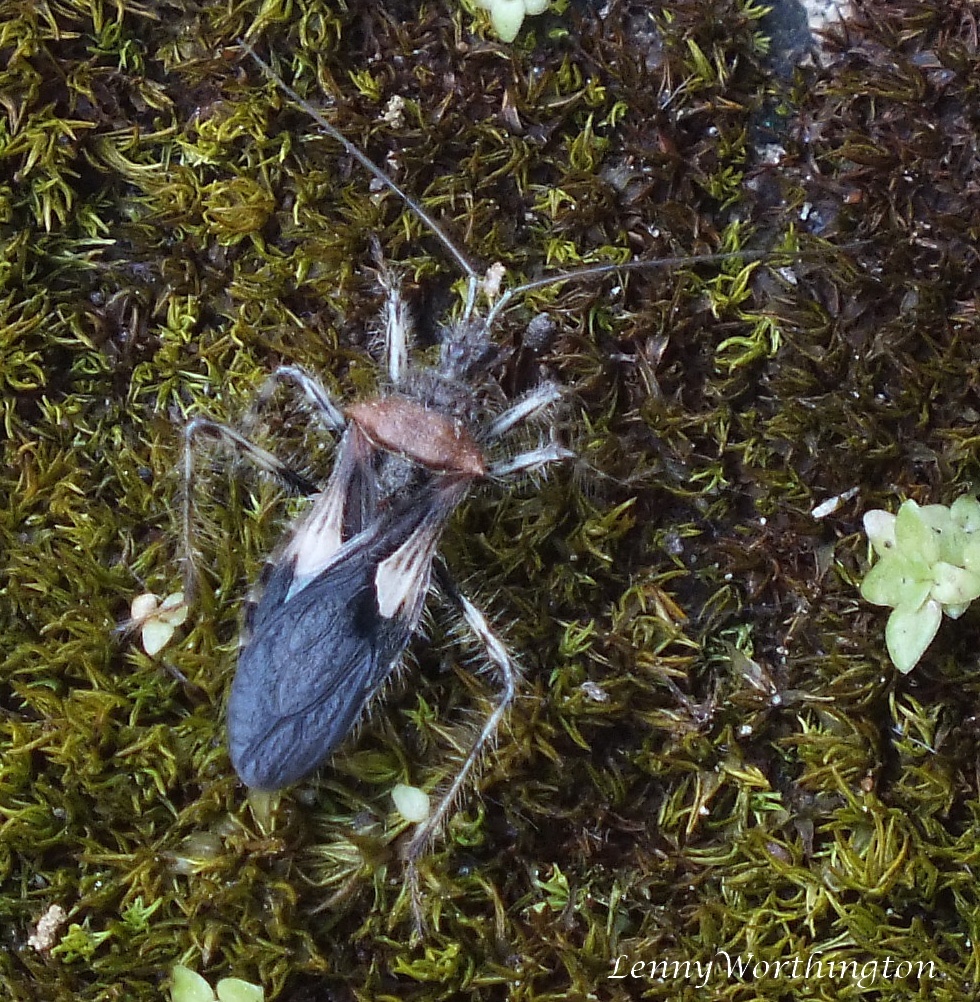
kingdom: Animalia
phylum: Arthropoda
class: Insecta
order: Hemiptera
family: Reduviidae
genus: Acanthaspis
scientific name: Acanthaspis westermanni
